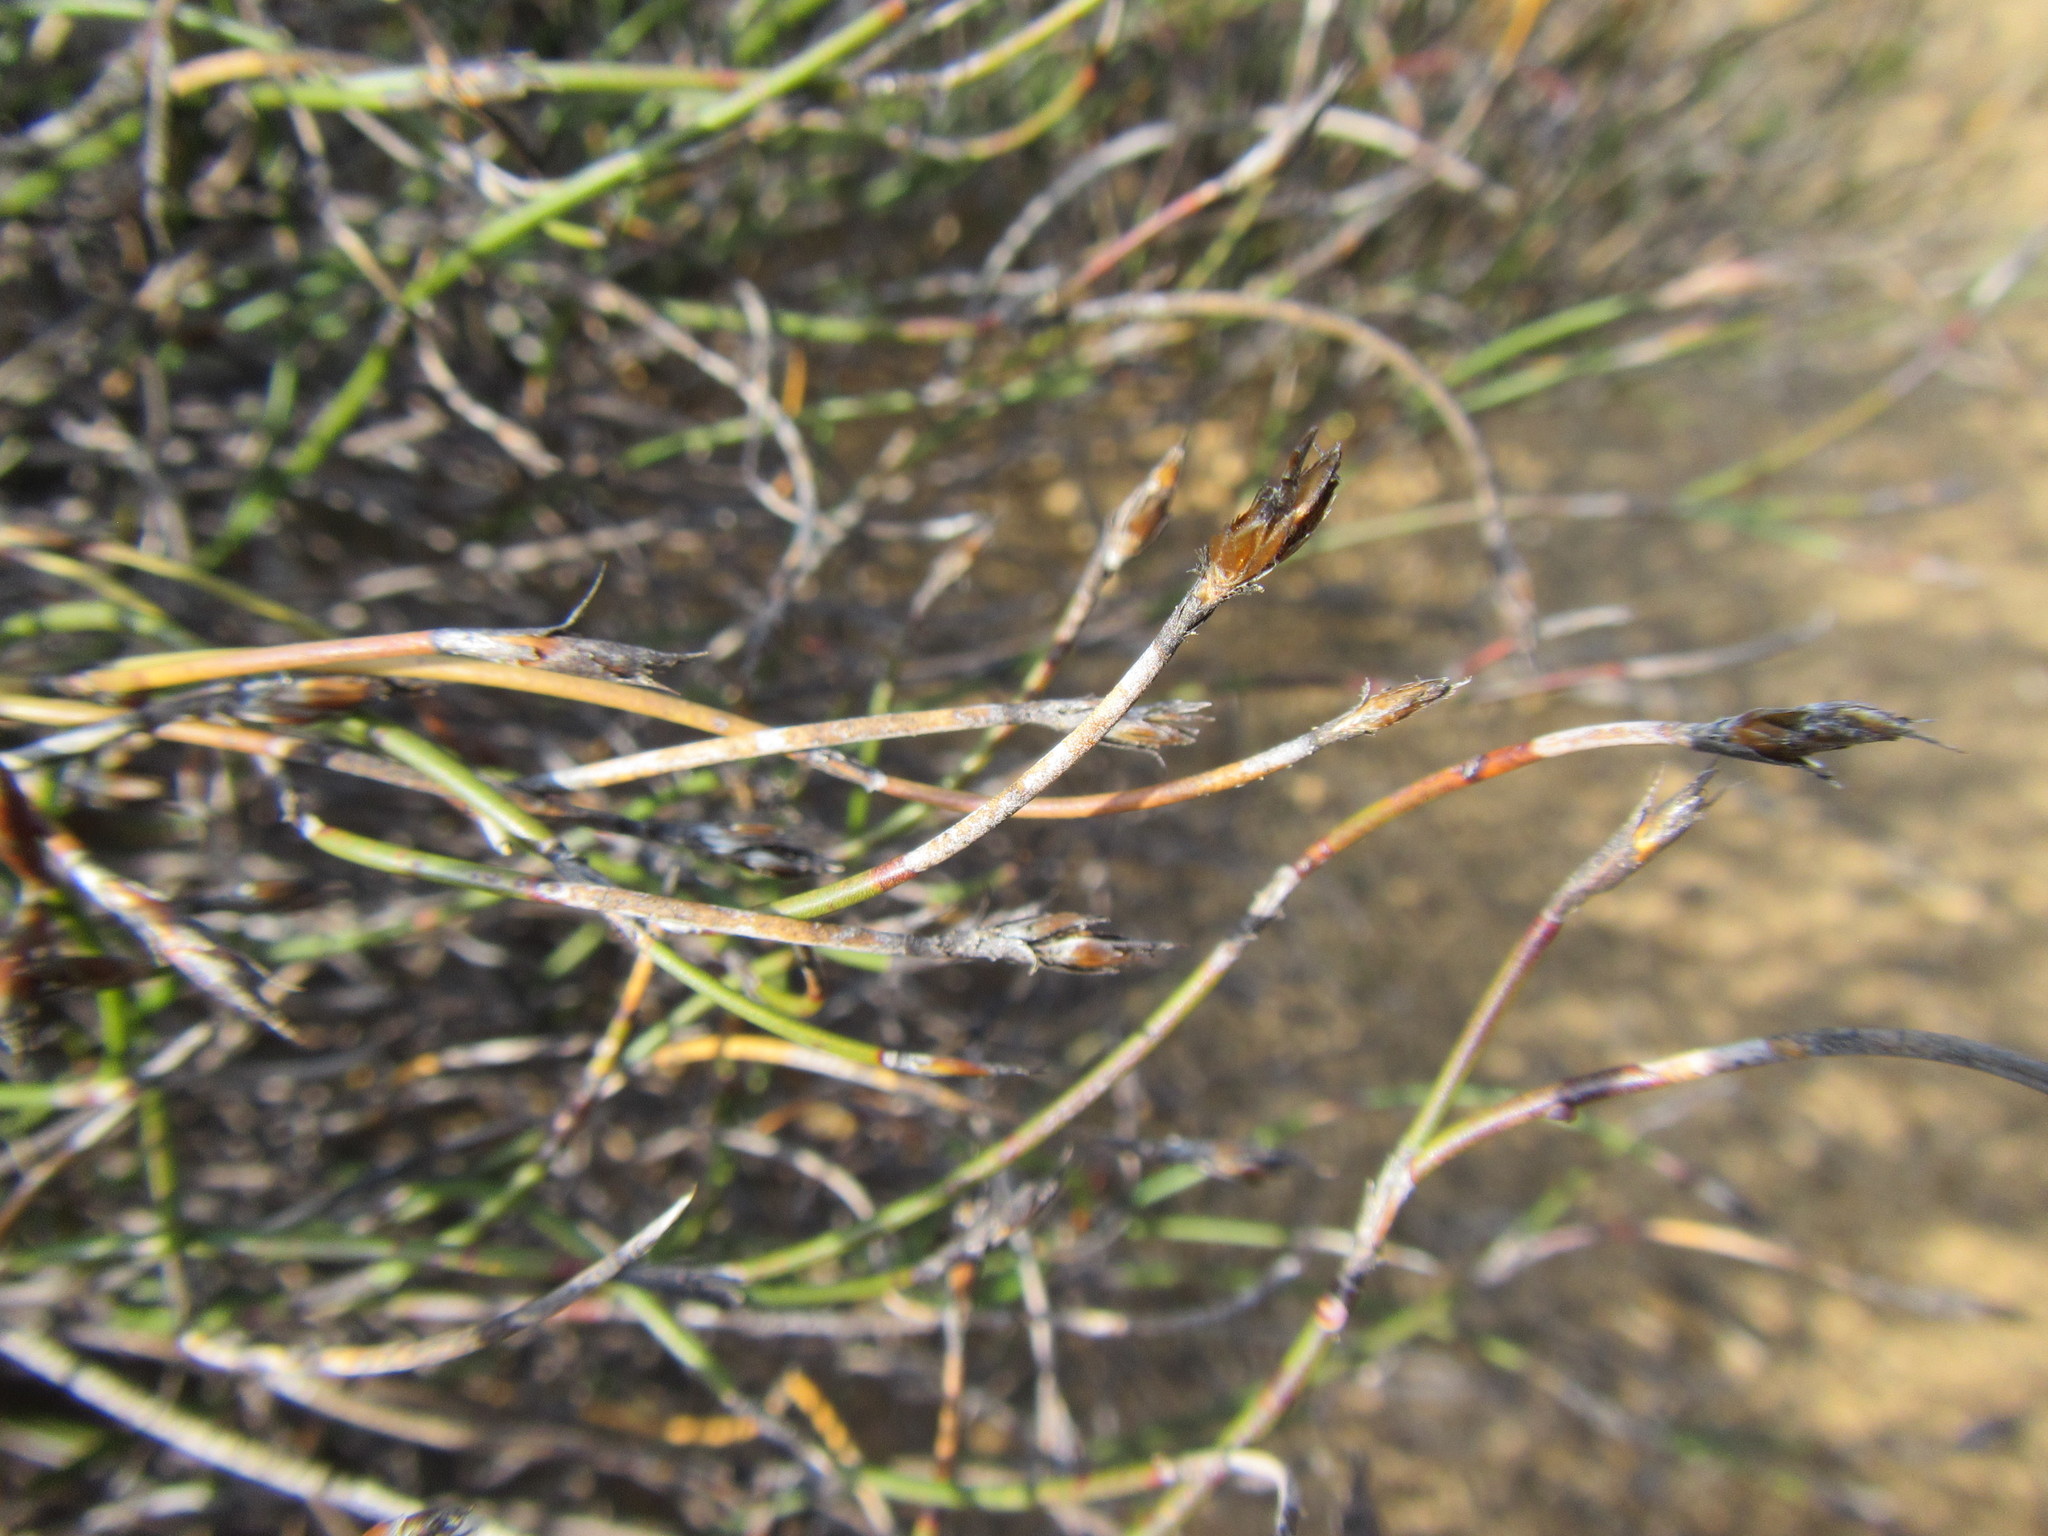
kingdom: Plantae
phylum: Tracheophyta
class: Liliopsida
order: Poales
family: Restionaceae
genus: Restio
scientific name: Restio laniger
